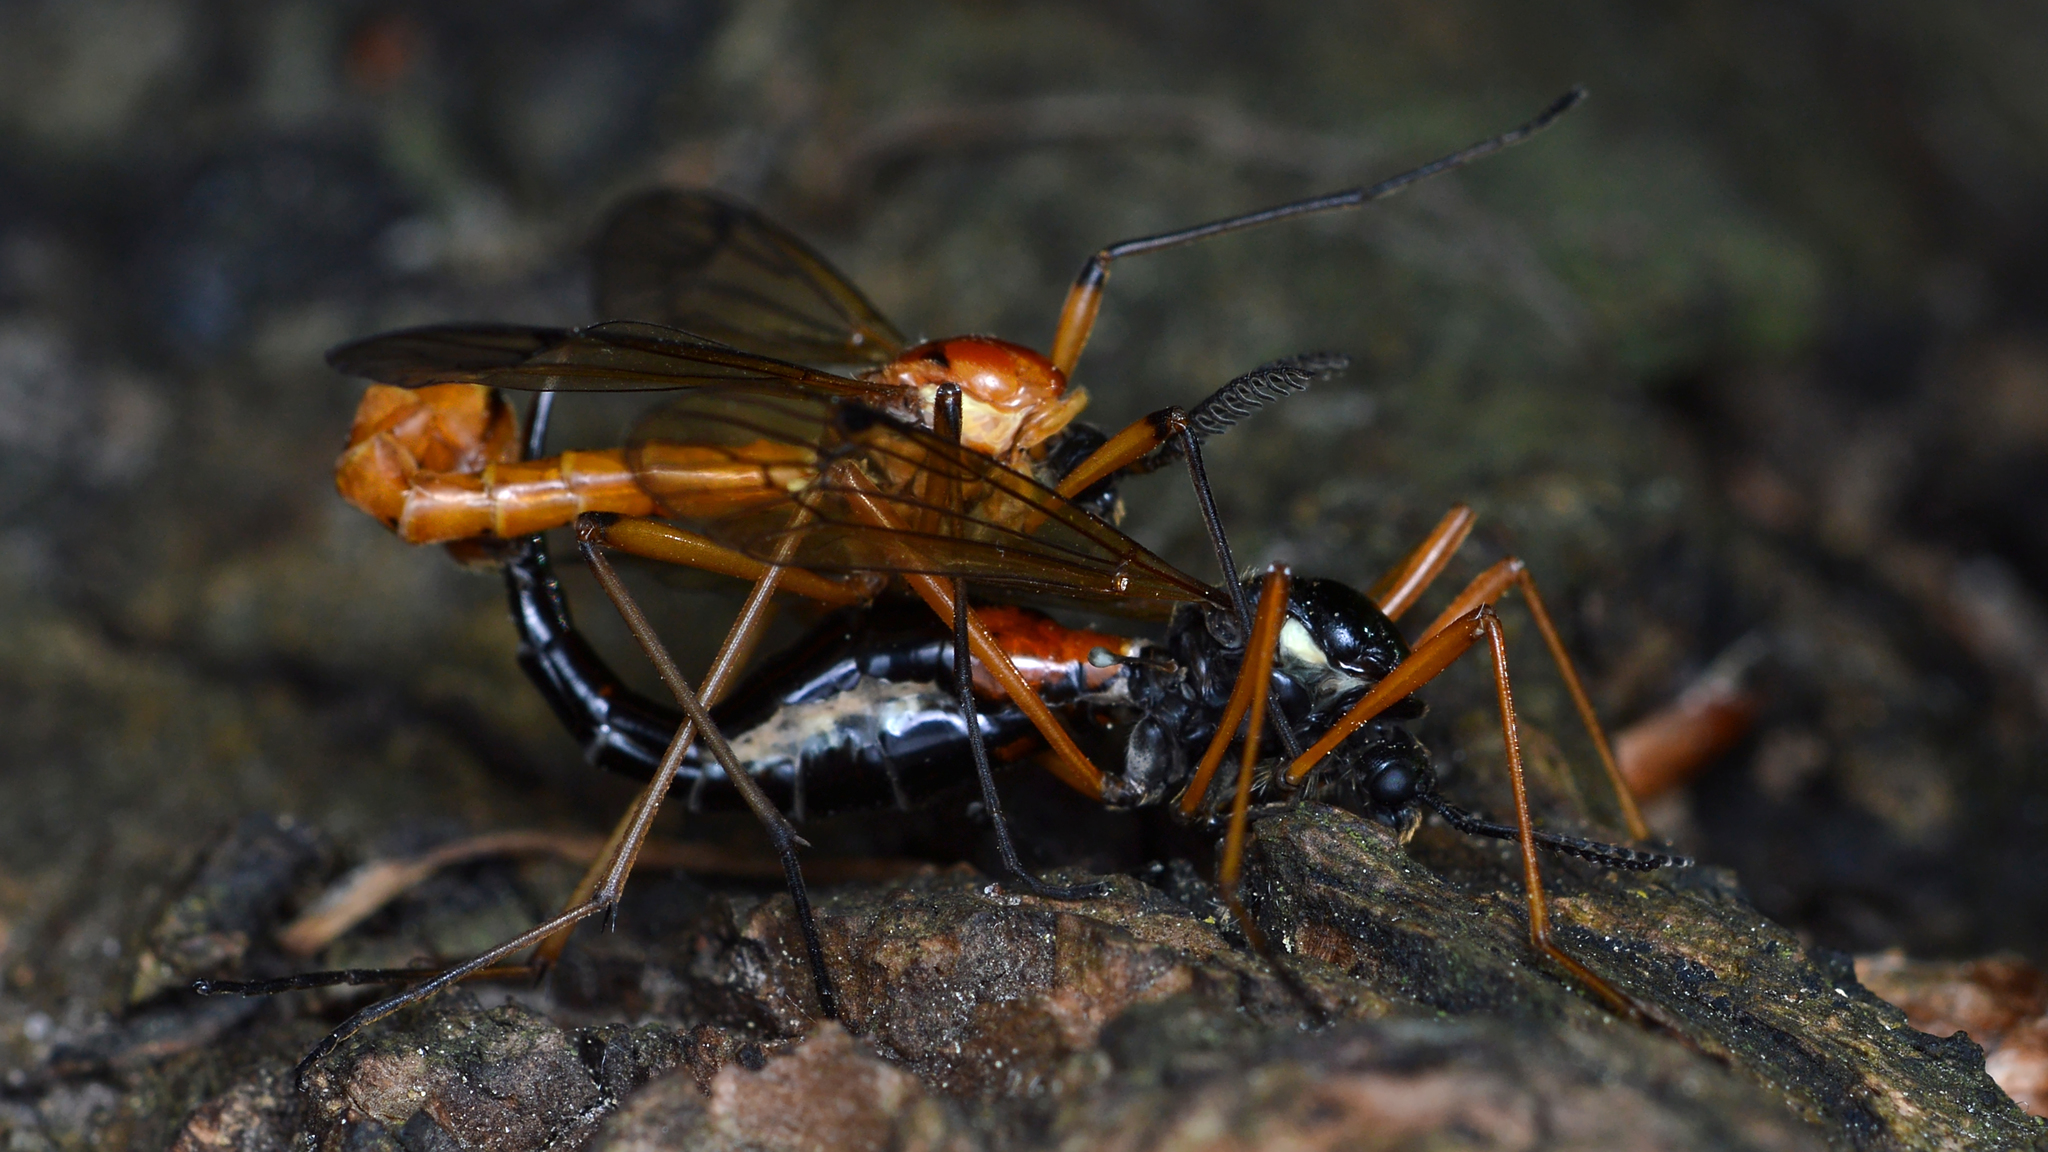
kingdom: Animalia
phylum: Arthropoda
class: Insecta
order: Diptera
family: Tipulidae
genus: Tanyptera
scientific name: Tanyptera dorsalis
